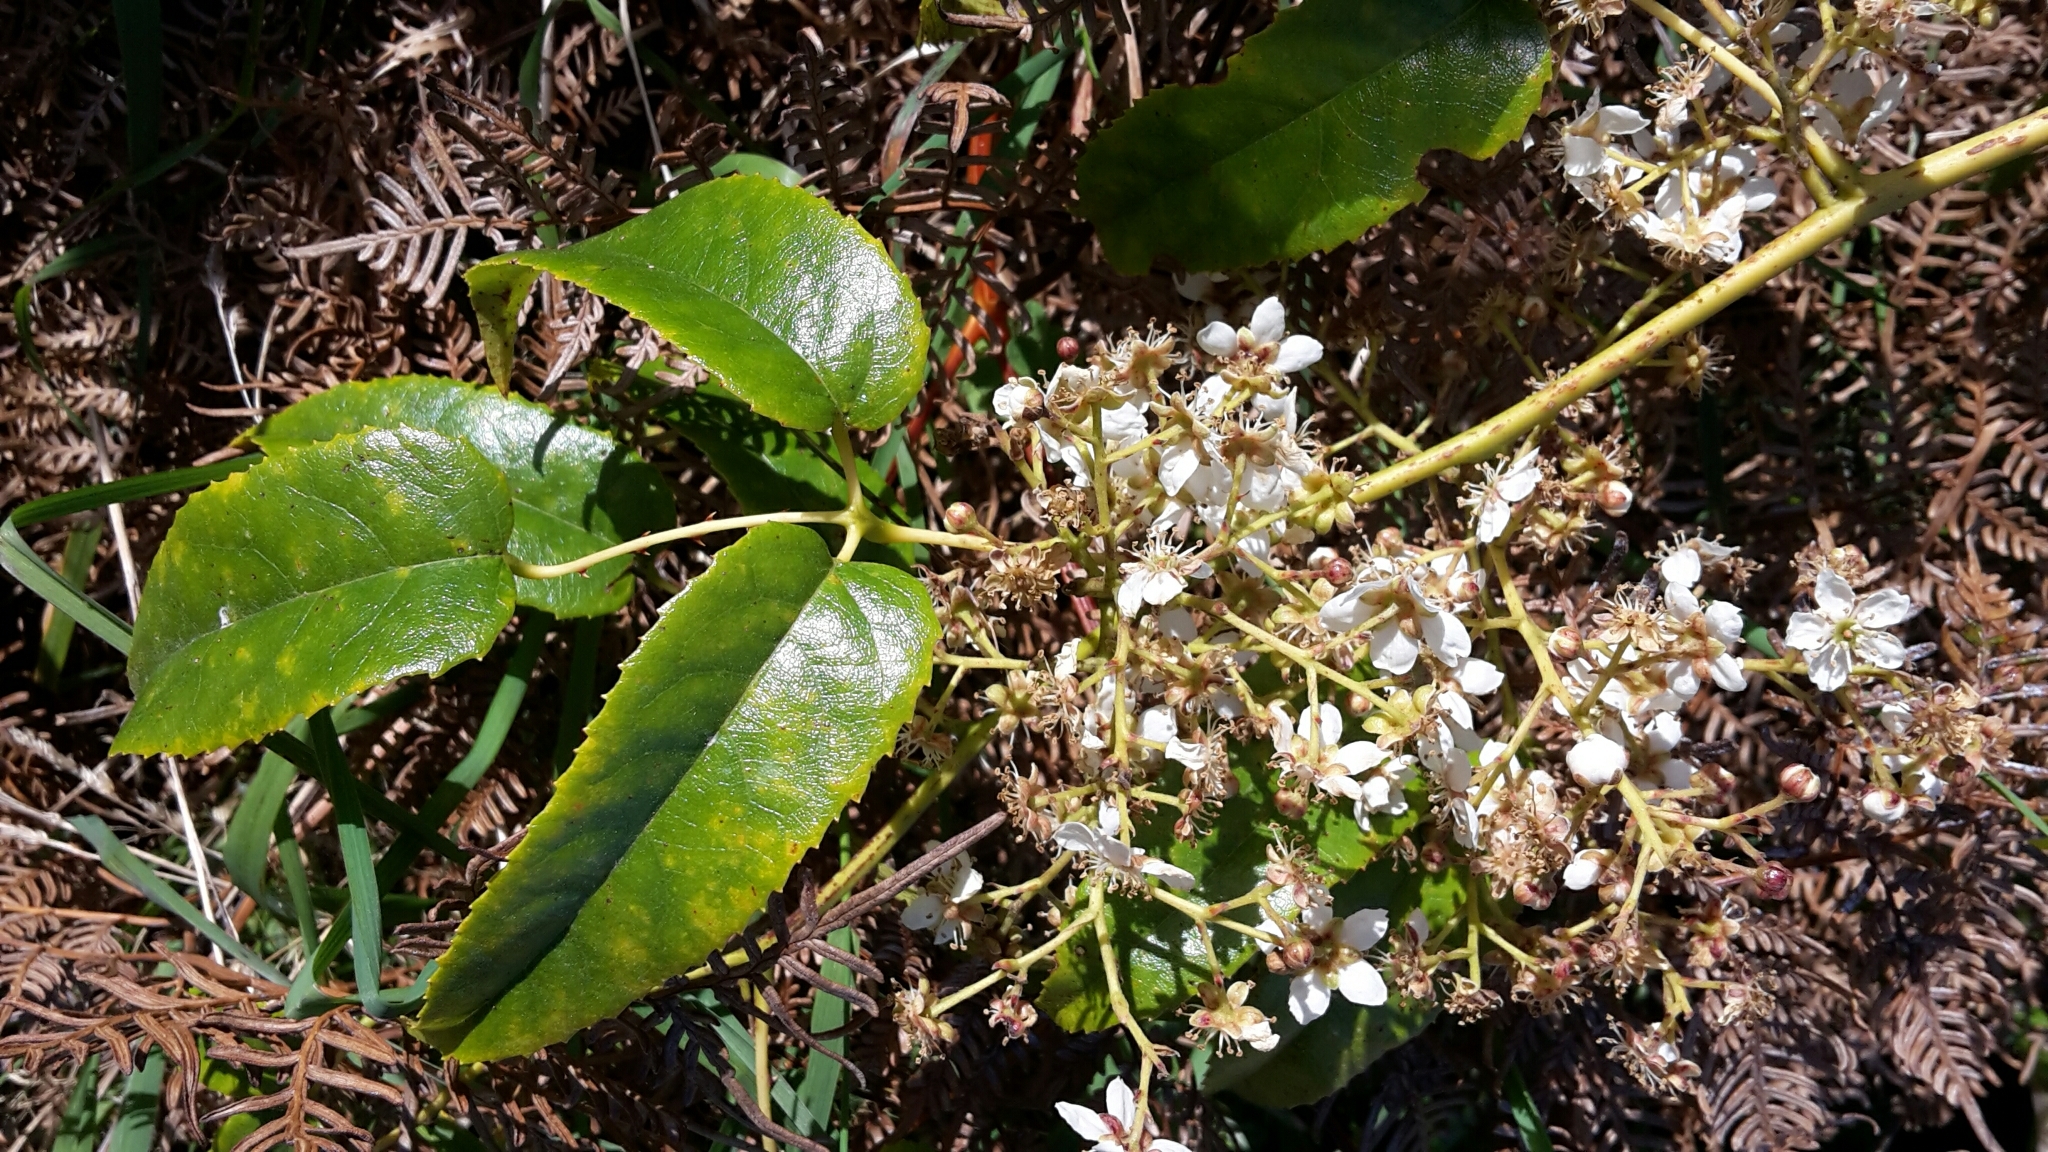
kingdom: Plantae
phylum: Tracheophyta
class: Magnoliopsida
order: Rosales
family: Rosaceae
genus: Rubus
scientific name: Rubus cissoides
